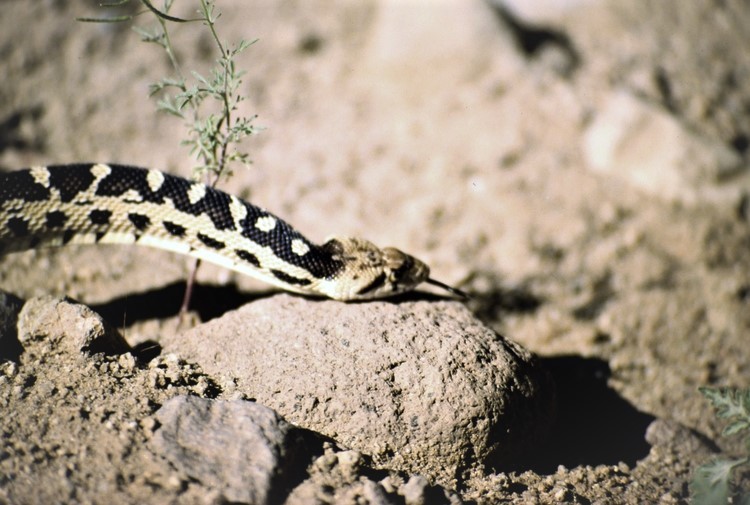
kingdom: Animalia
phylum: Chordata
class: Squamata
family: Colubridae
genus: Pituophis
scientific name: Pituophis catenifer
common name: Gopher snake
